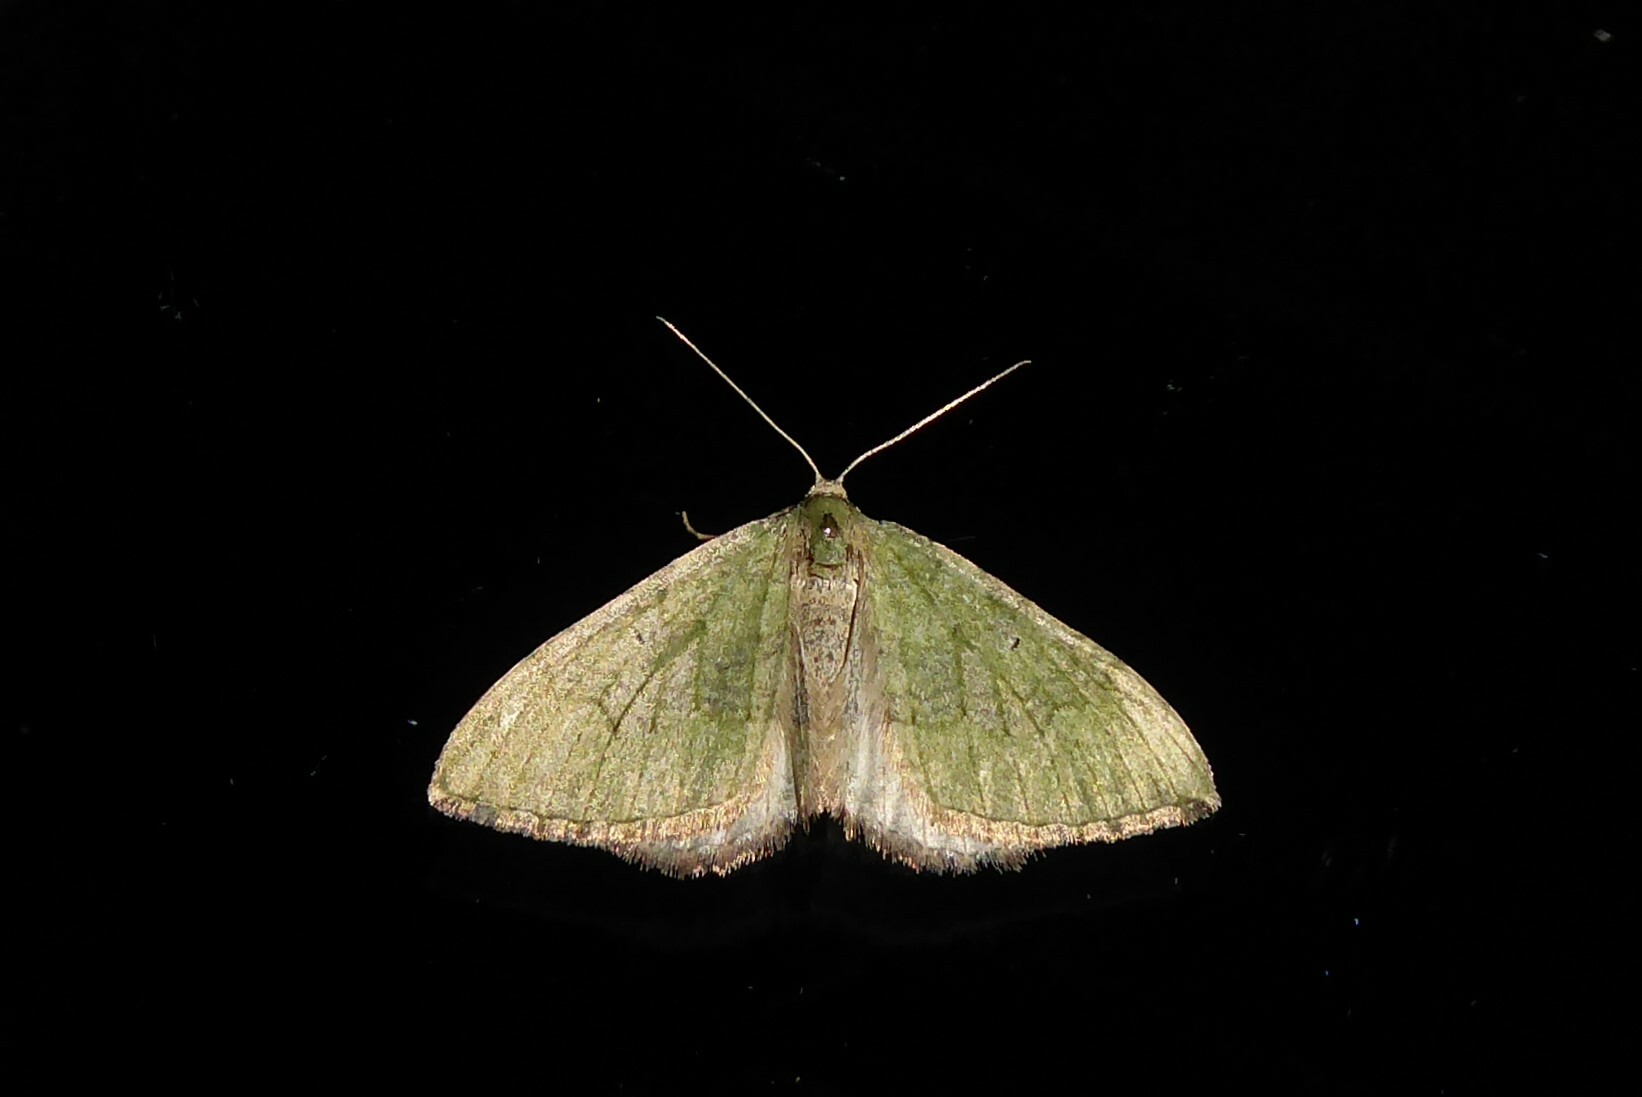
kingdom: Animalia
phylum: Arthropoda
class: Insecta
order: Lepidoptera
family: Geometridae
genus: Epyaxa
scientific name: Epyaxa rosearia
